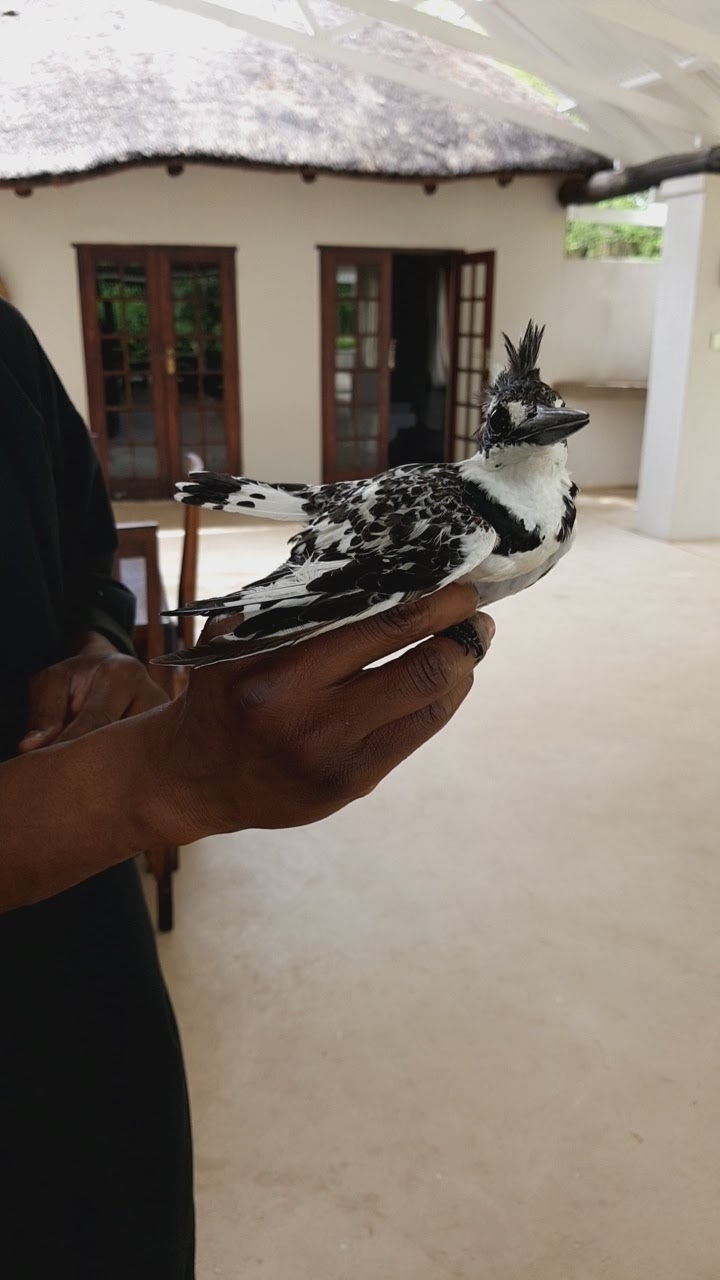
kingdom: Animalia
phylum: Chordata
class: Aves
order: Coraciiformes
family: Alcedinidae
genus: Ceryle
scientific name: Ceryle rudis
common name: Pied kingfisher
